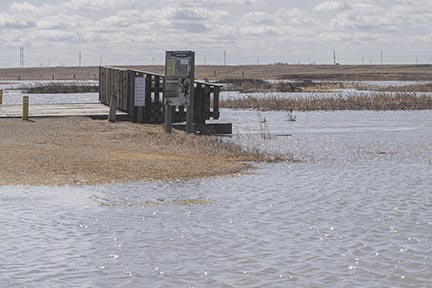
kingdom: Animalia
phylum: Chordata
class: Aves
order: Anseriformes
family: Anatidae
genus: Anas
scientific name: Anas platyrhynchos
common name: Mallard
